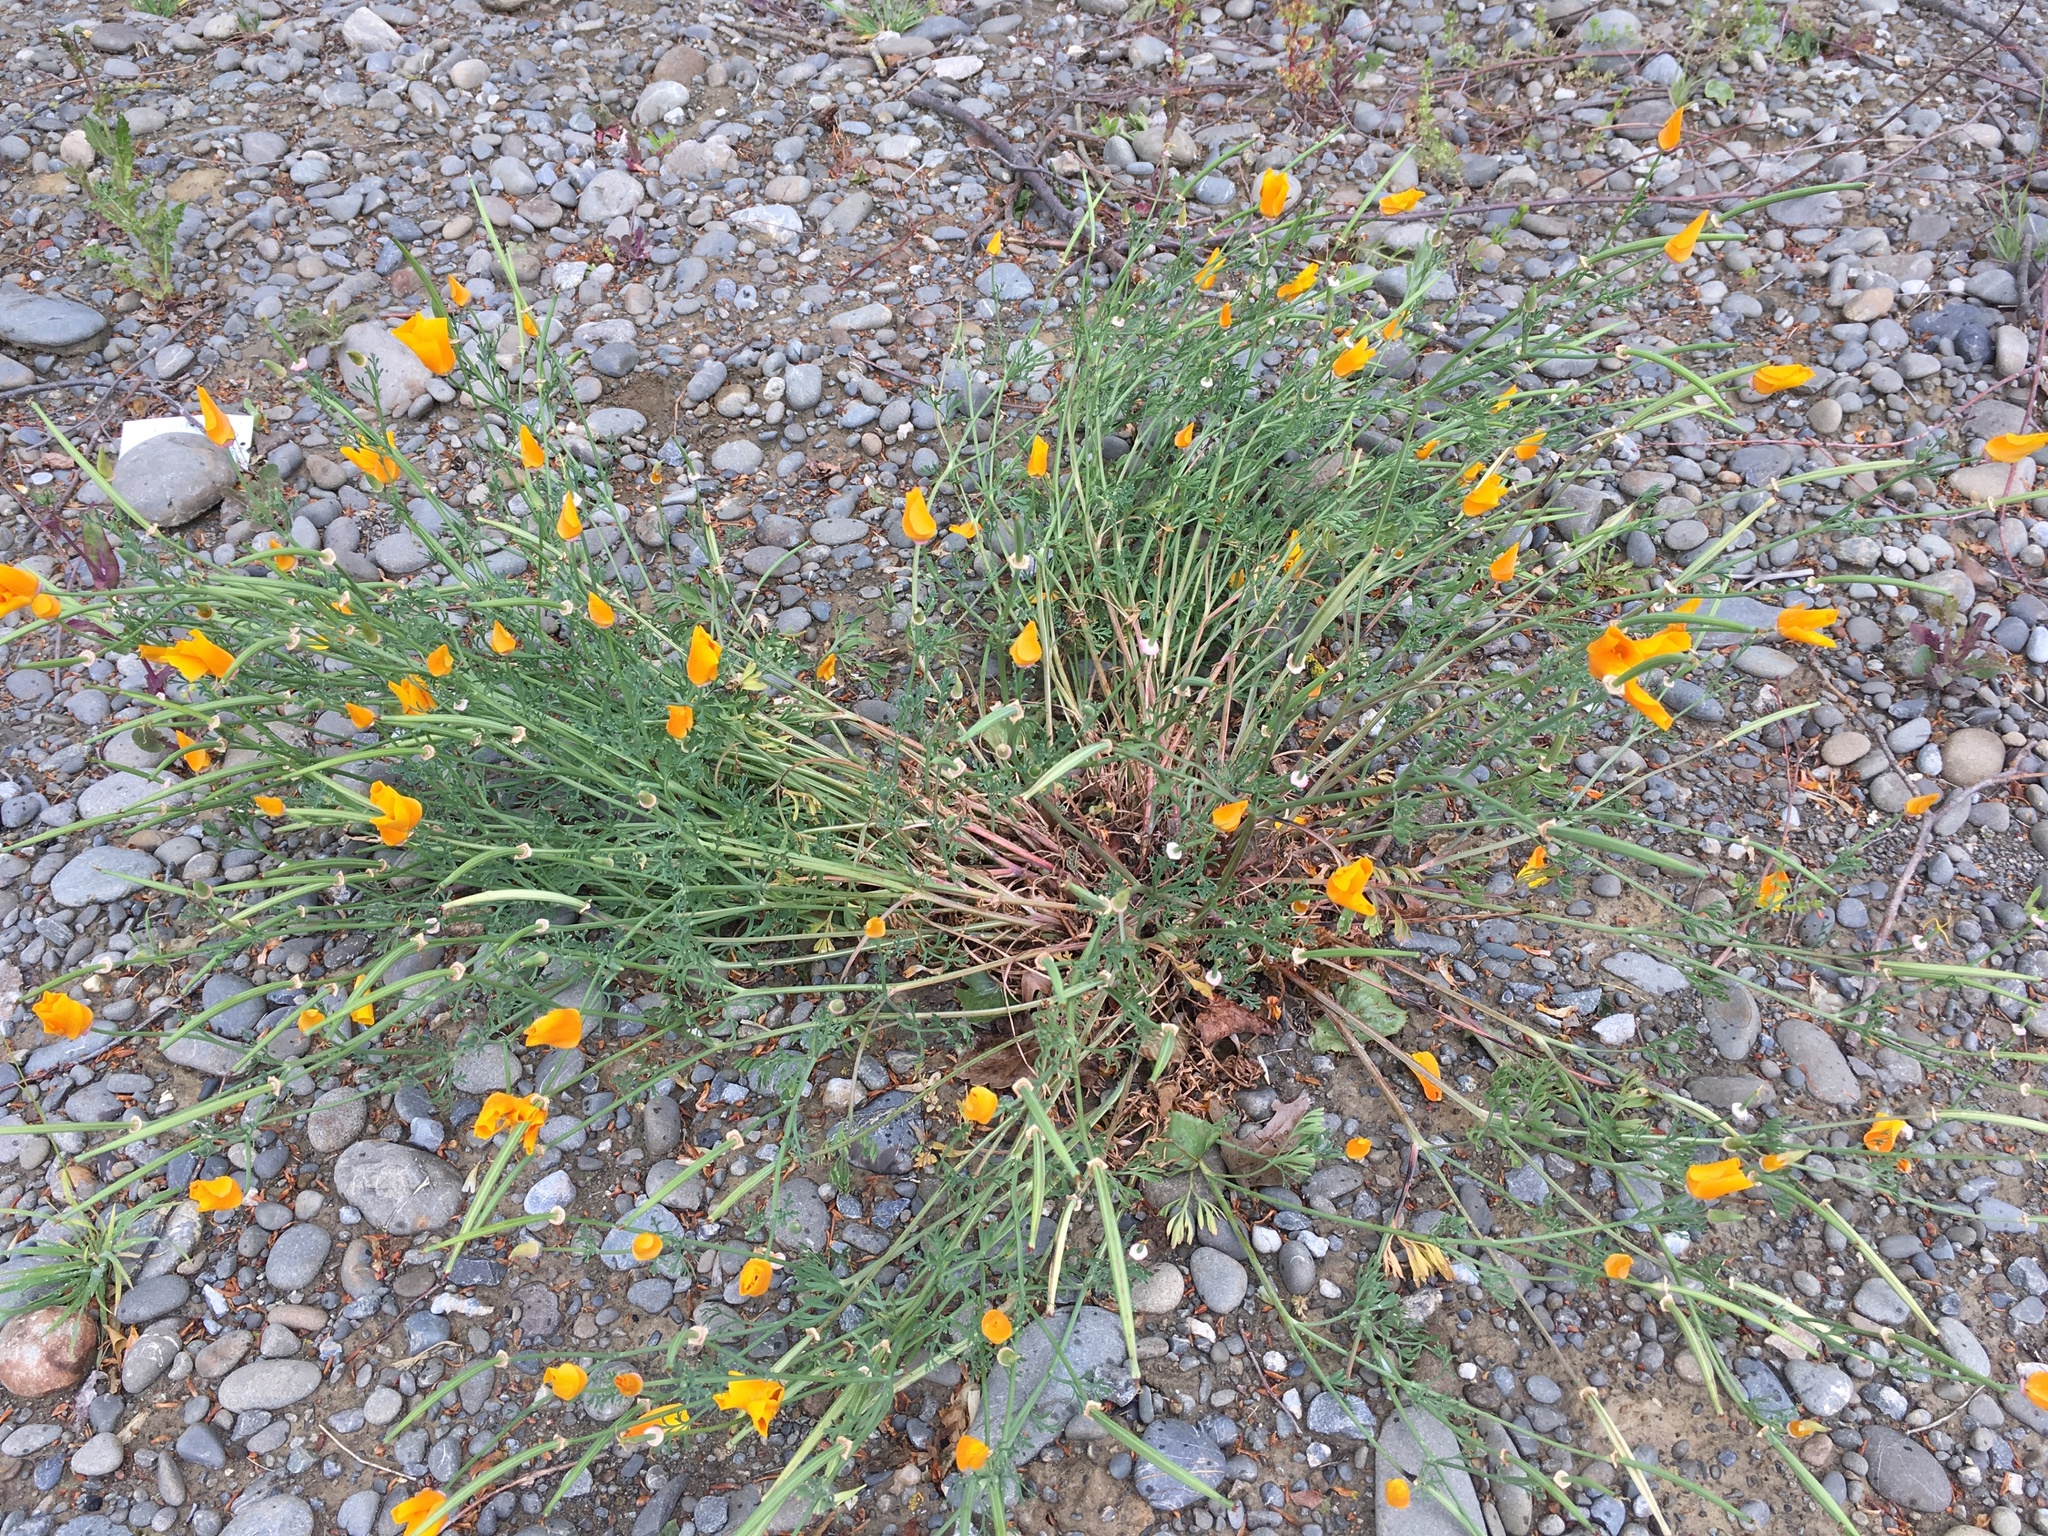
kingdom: Plantae
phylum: Tracheophyta
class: Magnoliopsida
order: Ranunculales
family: Papaveraceae
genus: Eschscholzia
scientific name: Eschscholzia californica
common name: California poppy
